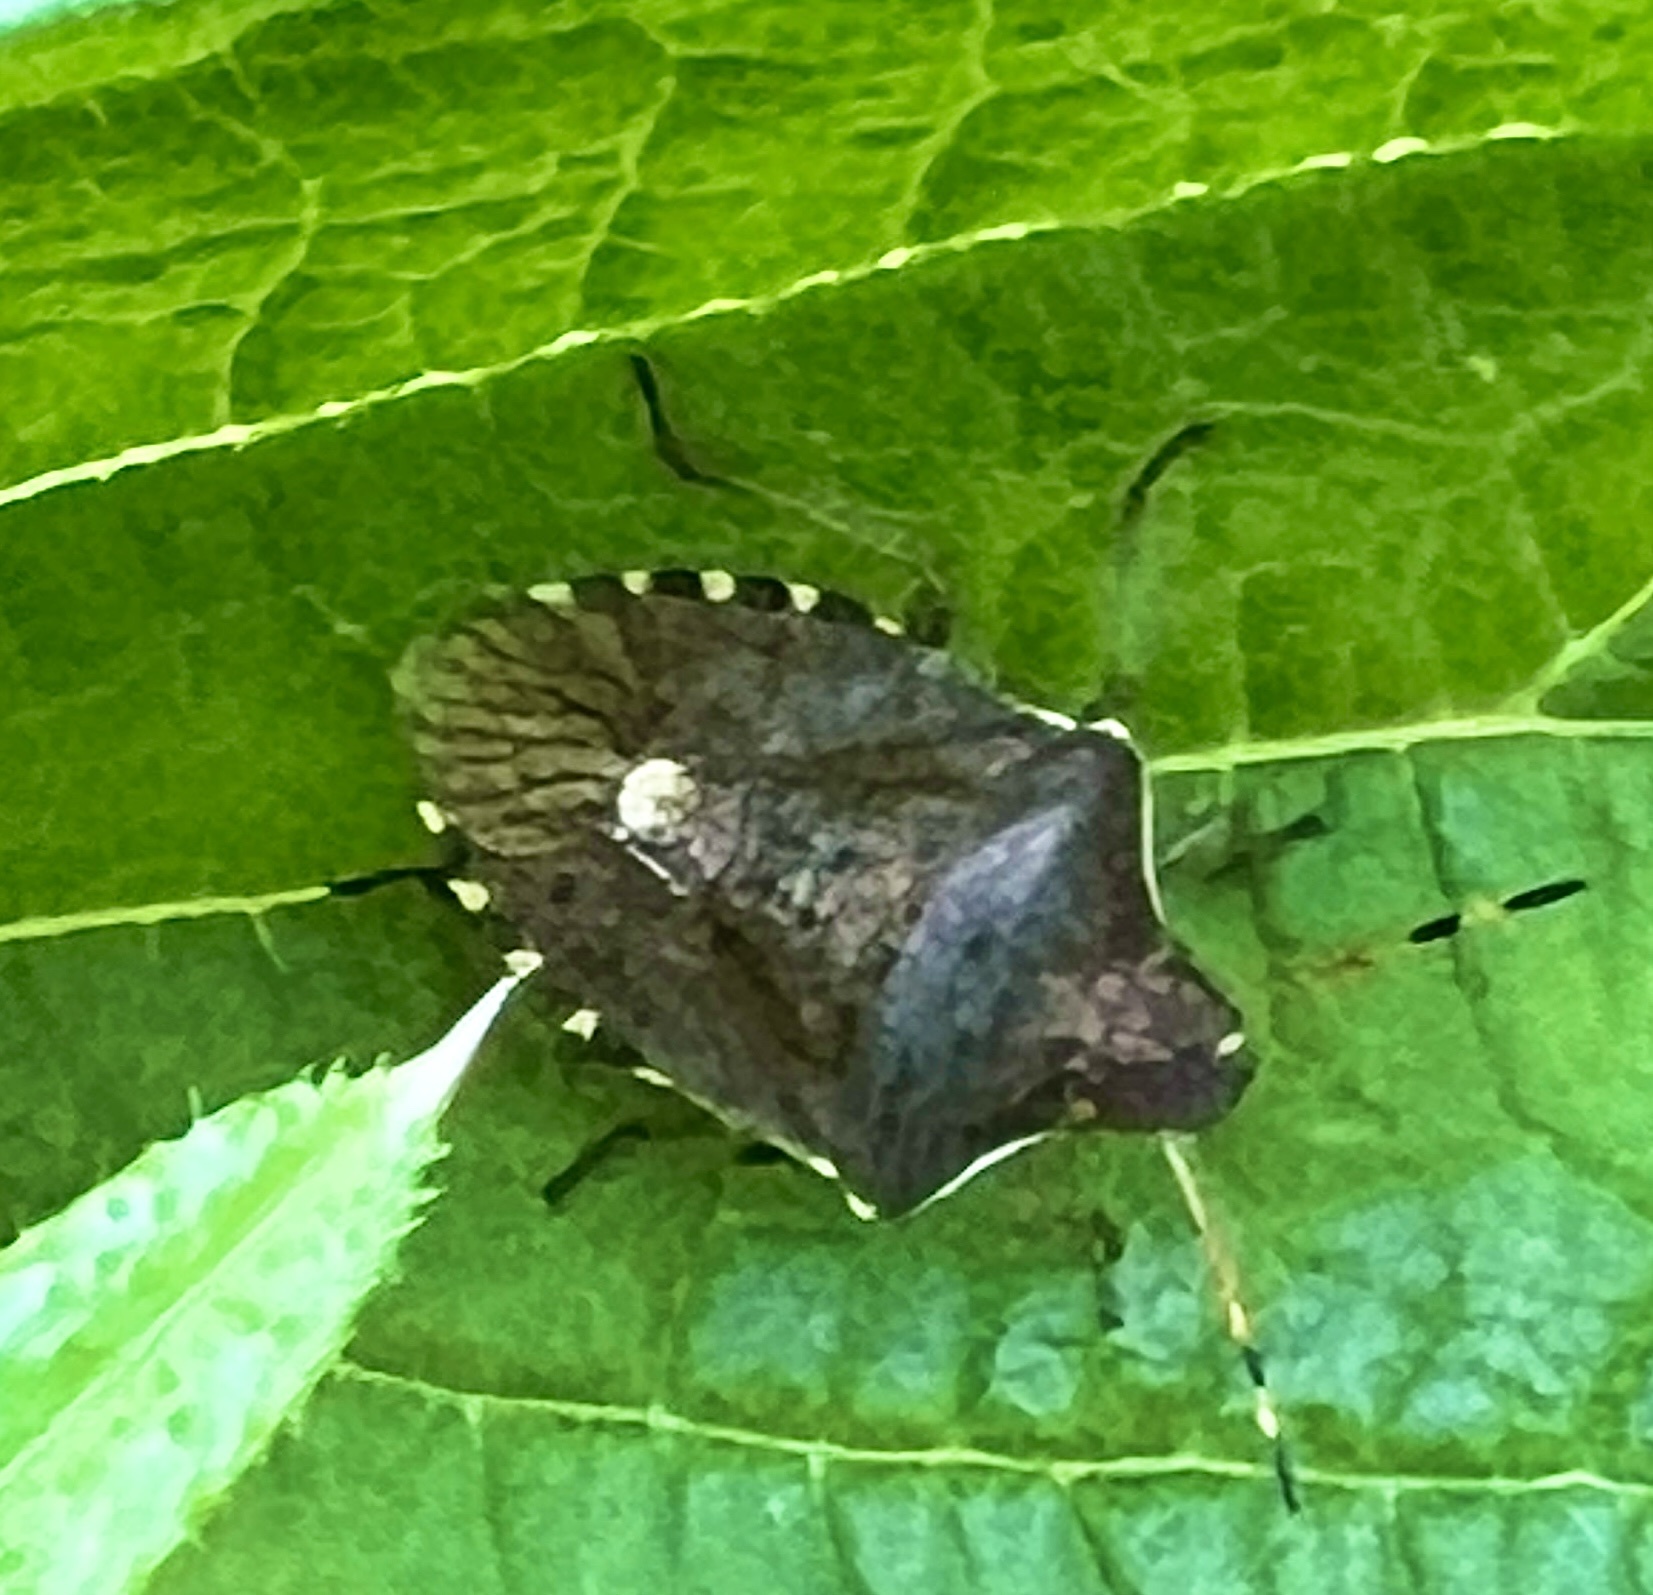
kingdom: Animalia
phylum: Arthropoda
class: Insecta
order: Hemiptera
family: Pentatomidae
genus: Holcostethus
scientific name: Holcostethus sphacelatus
